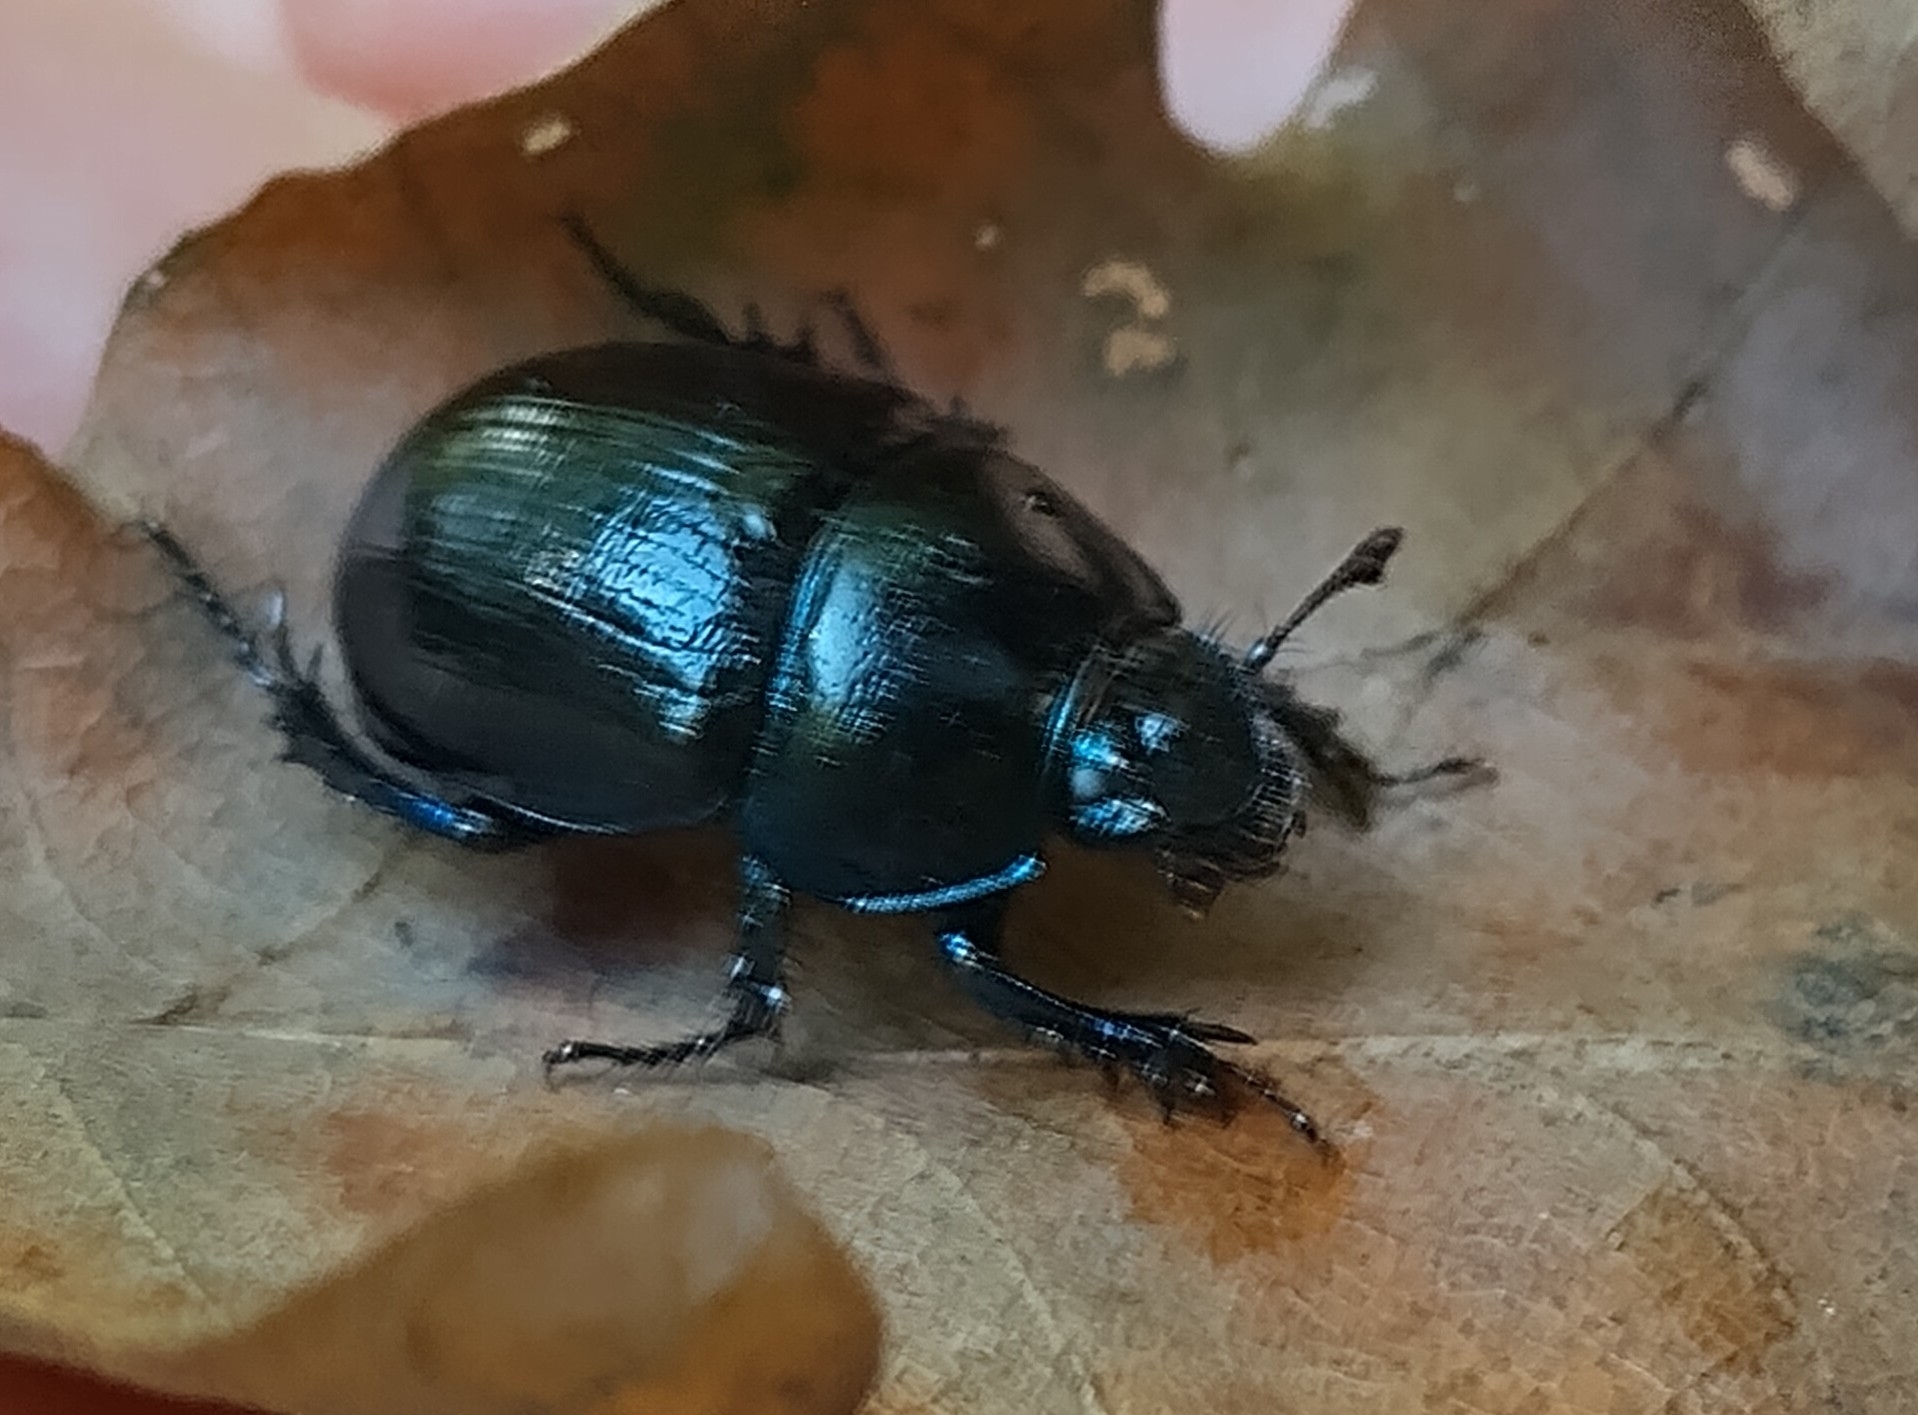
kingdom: Animalia
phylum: Arthropoda
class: Insecta
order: Coleoptera
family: Geotrupidae
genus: Anoplotrupes
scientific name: Anoplotrupes stercorosus
